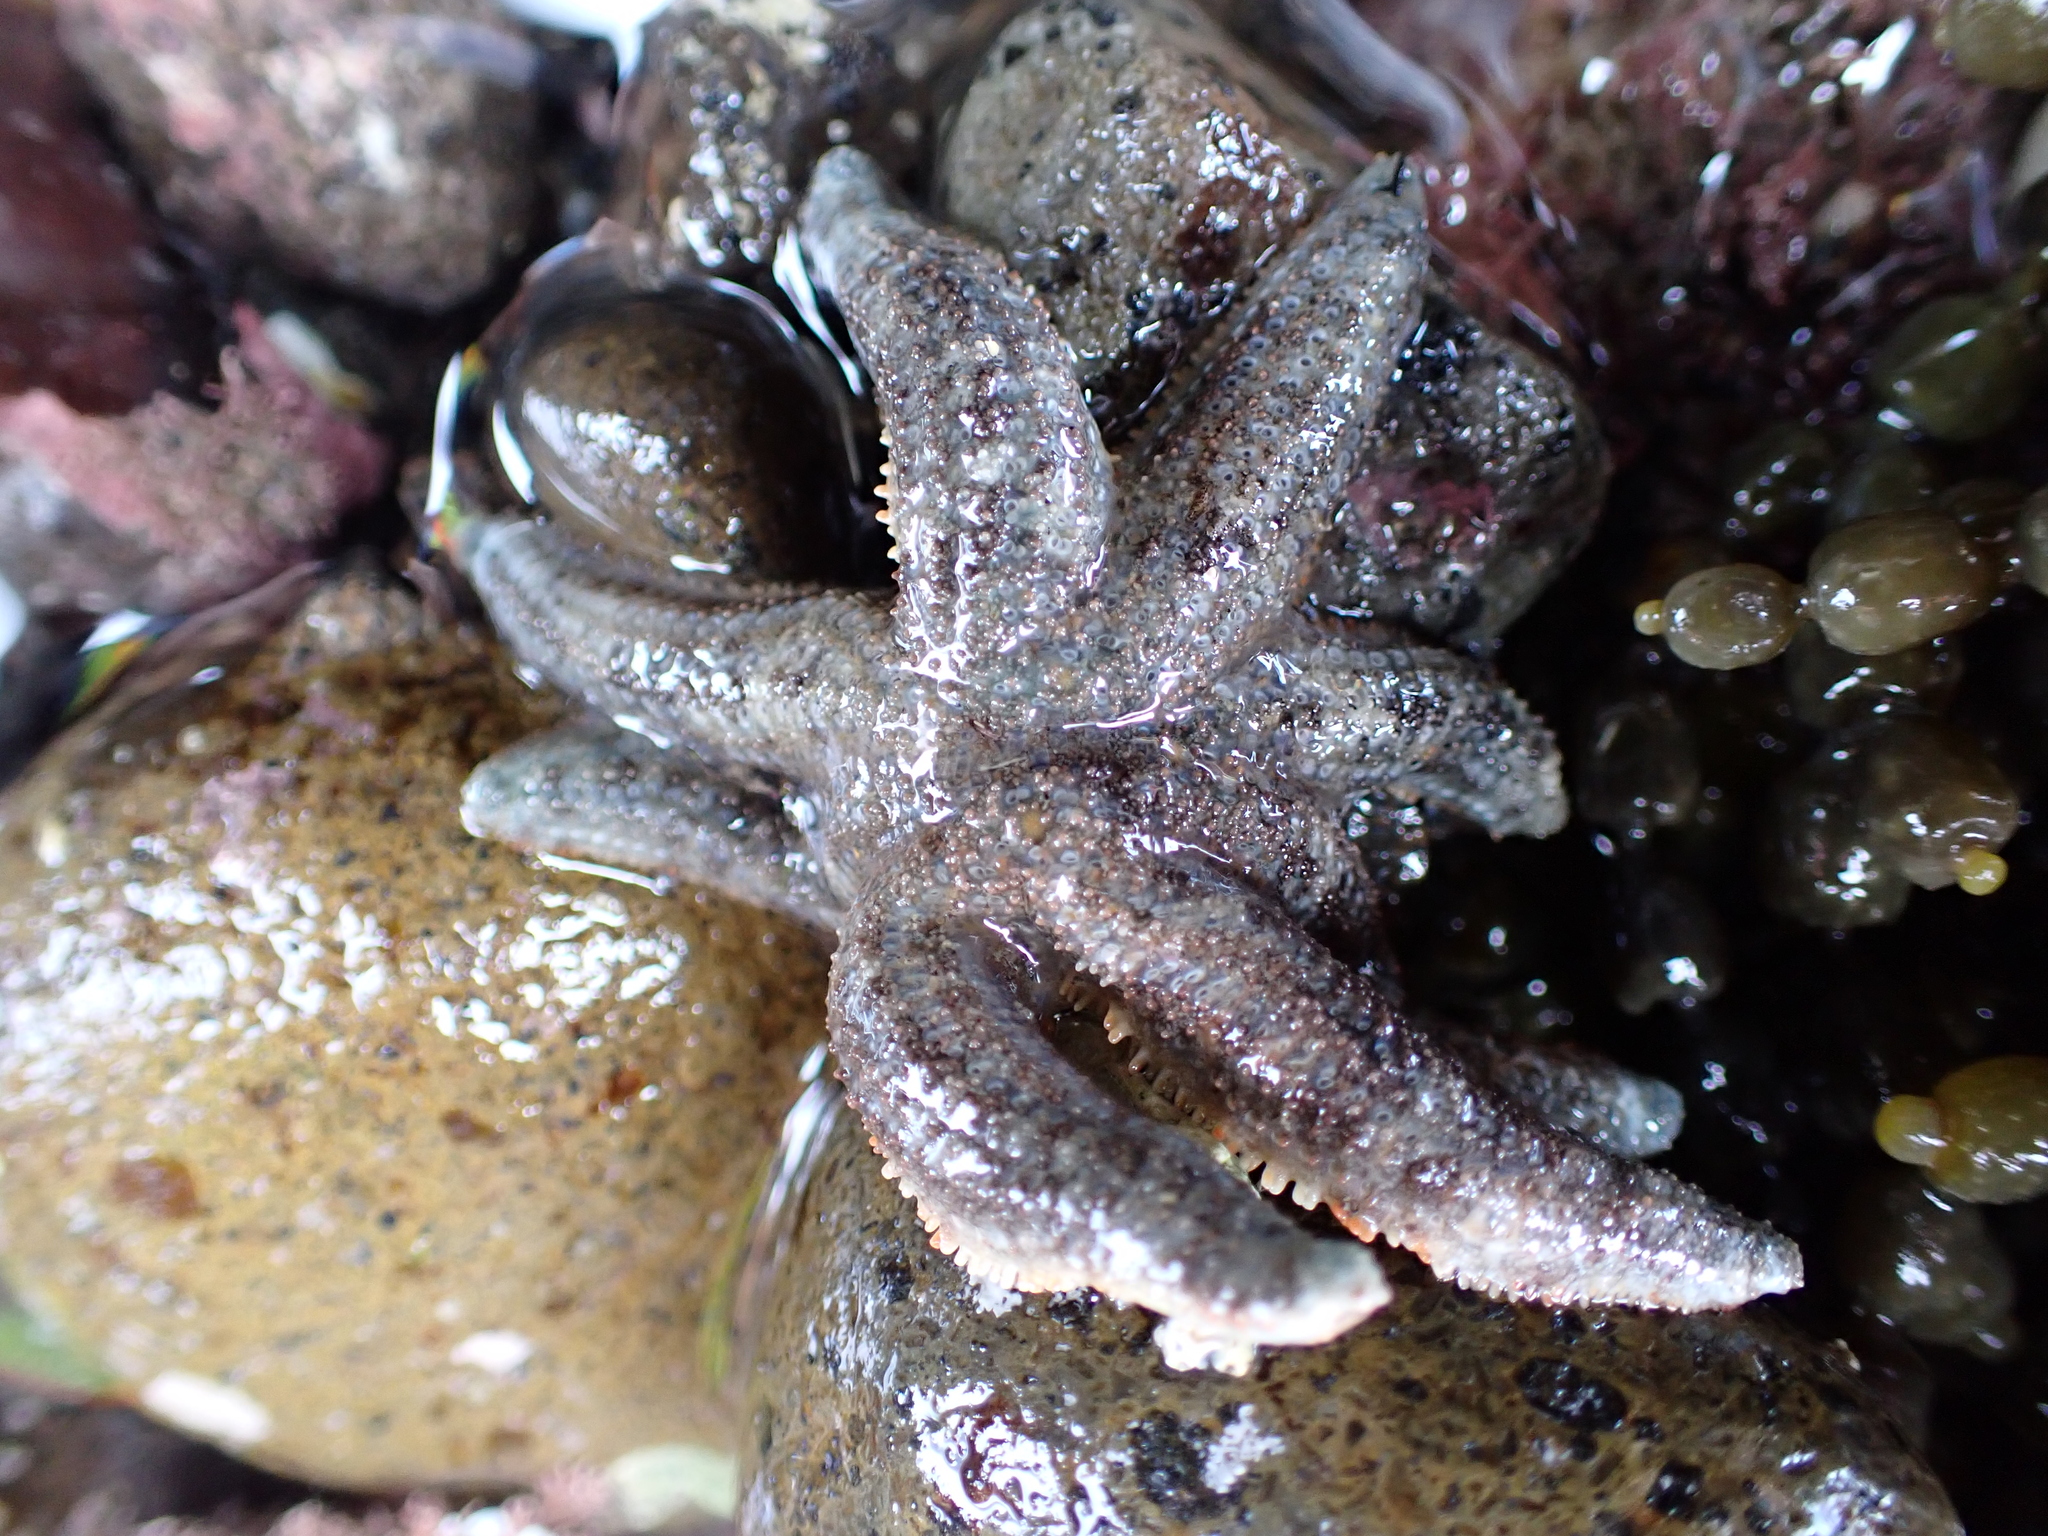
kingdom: Animalia
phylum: Echinodermata
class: Asteroidea
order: Forcipulatida
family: Stichasteridae
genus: Allostichaster
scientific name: Allostichaster polyplax
